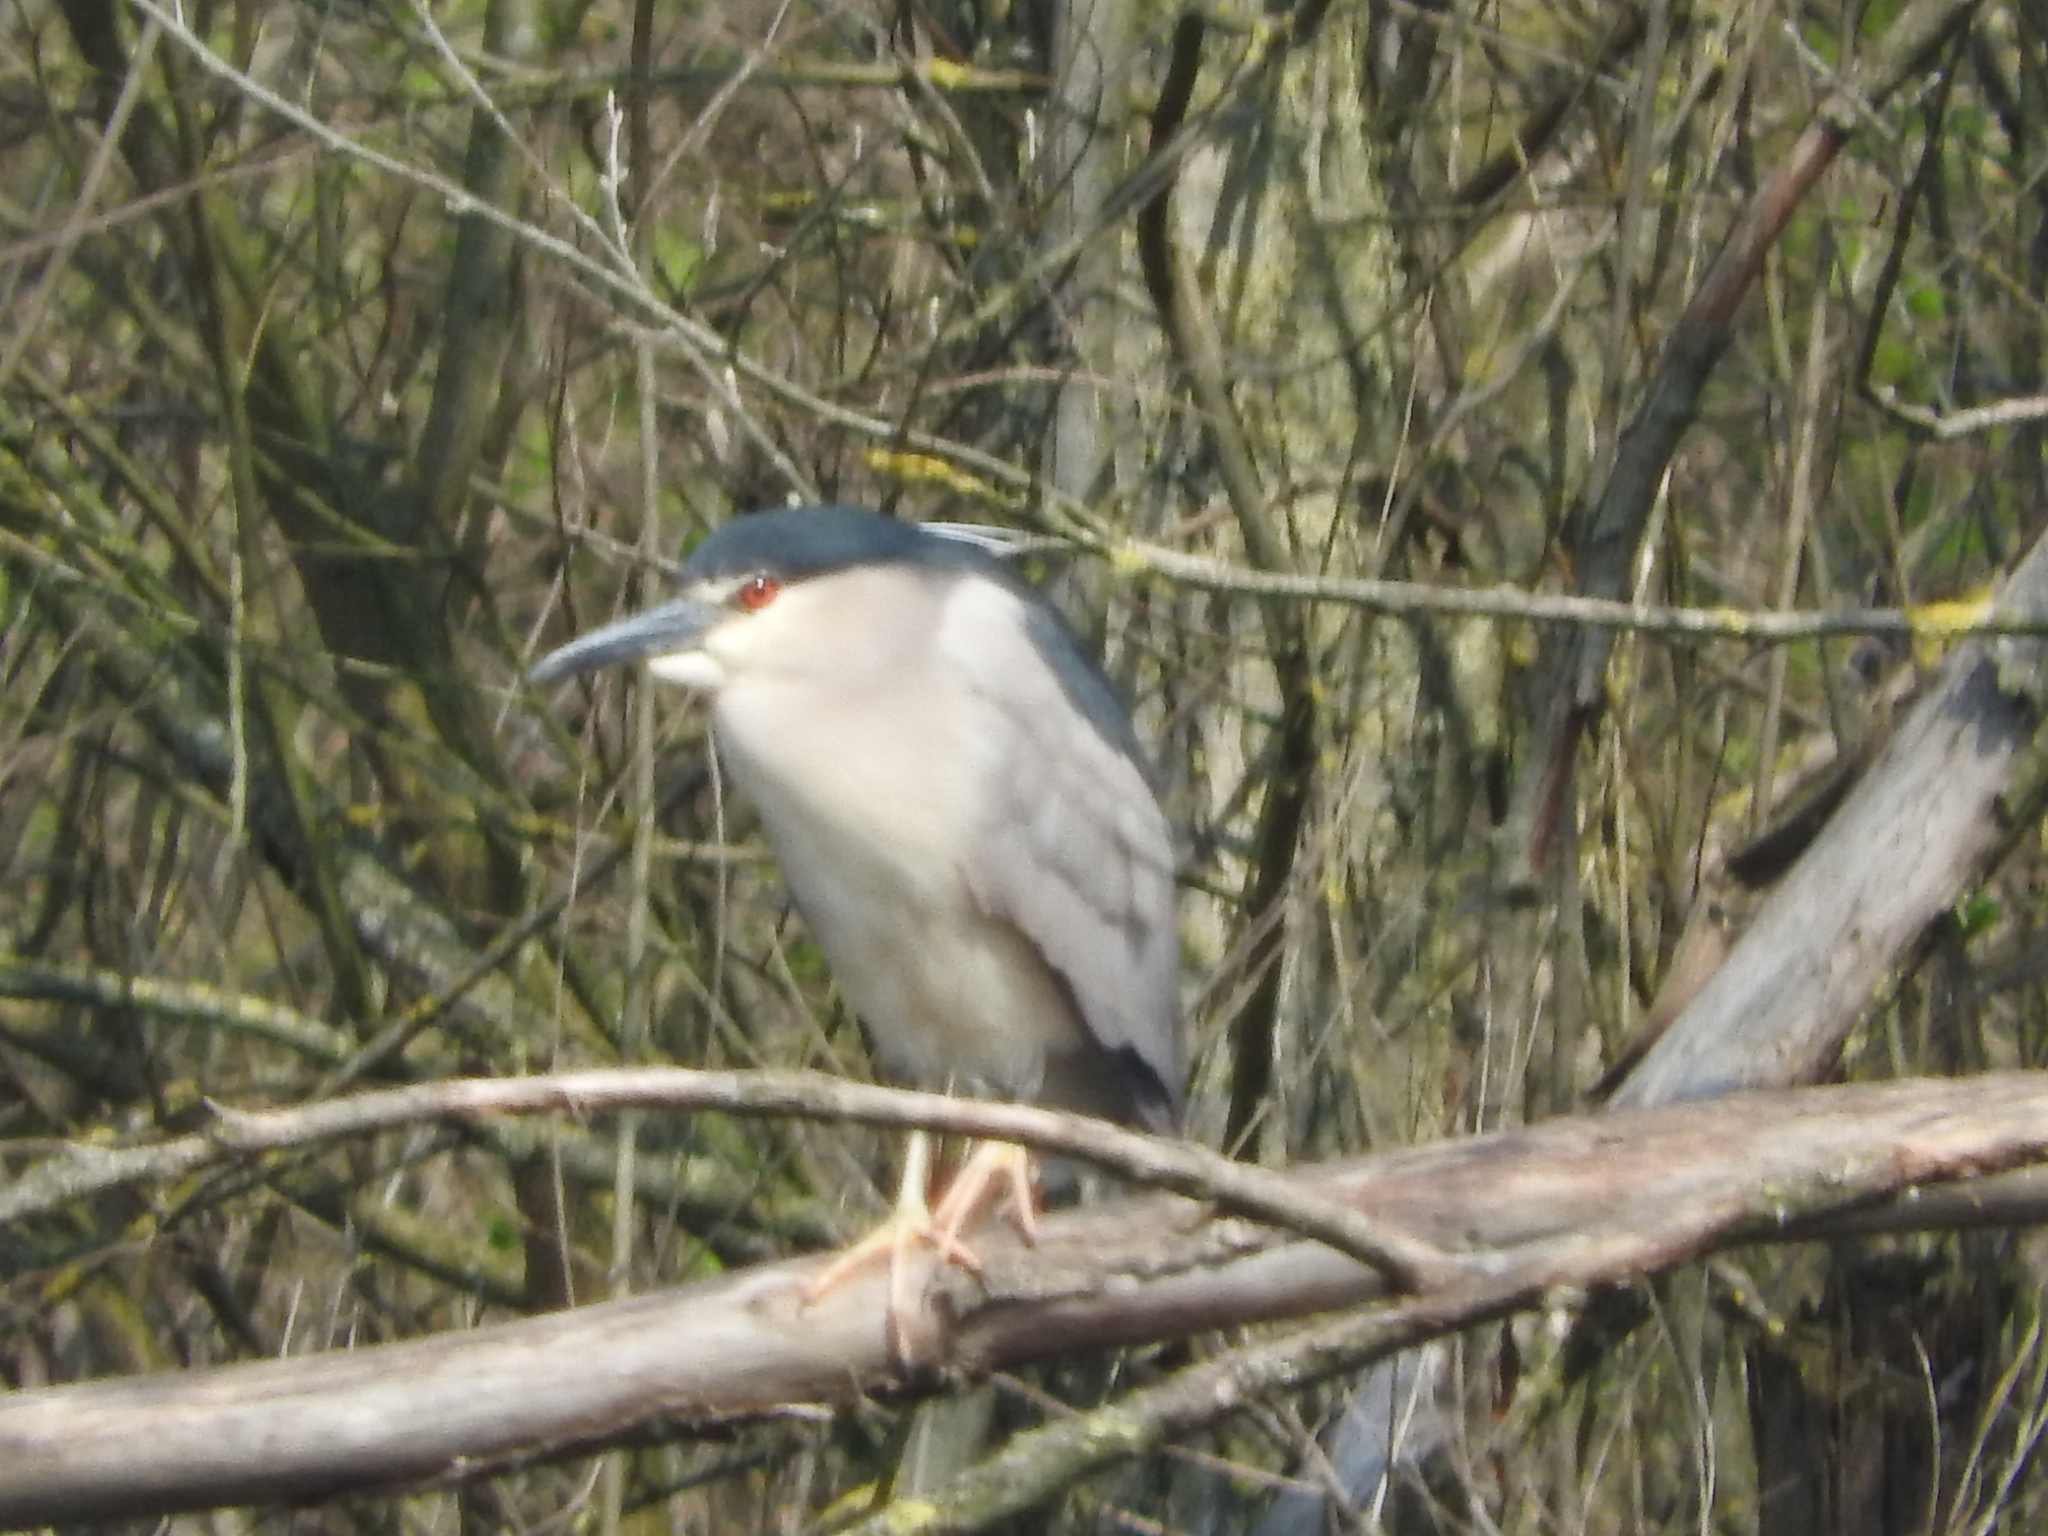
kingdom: Animalia
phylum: Chordata
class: Aves
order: Pelecaniformes
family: Ardeidae
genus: Nycticorax
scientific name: Nycticorax nycticorax
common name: Black-crowned night heron
